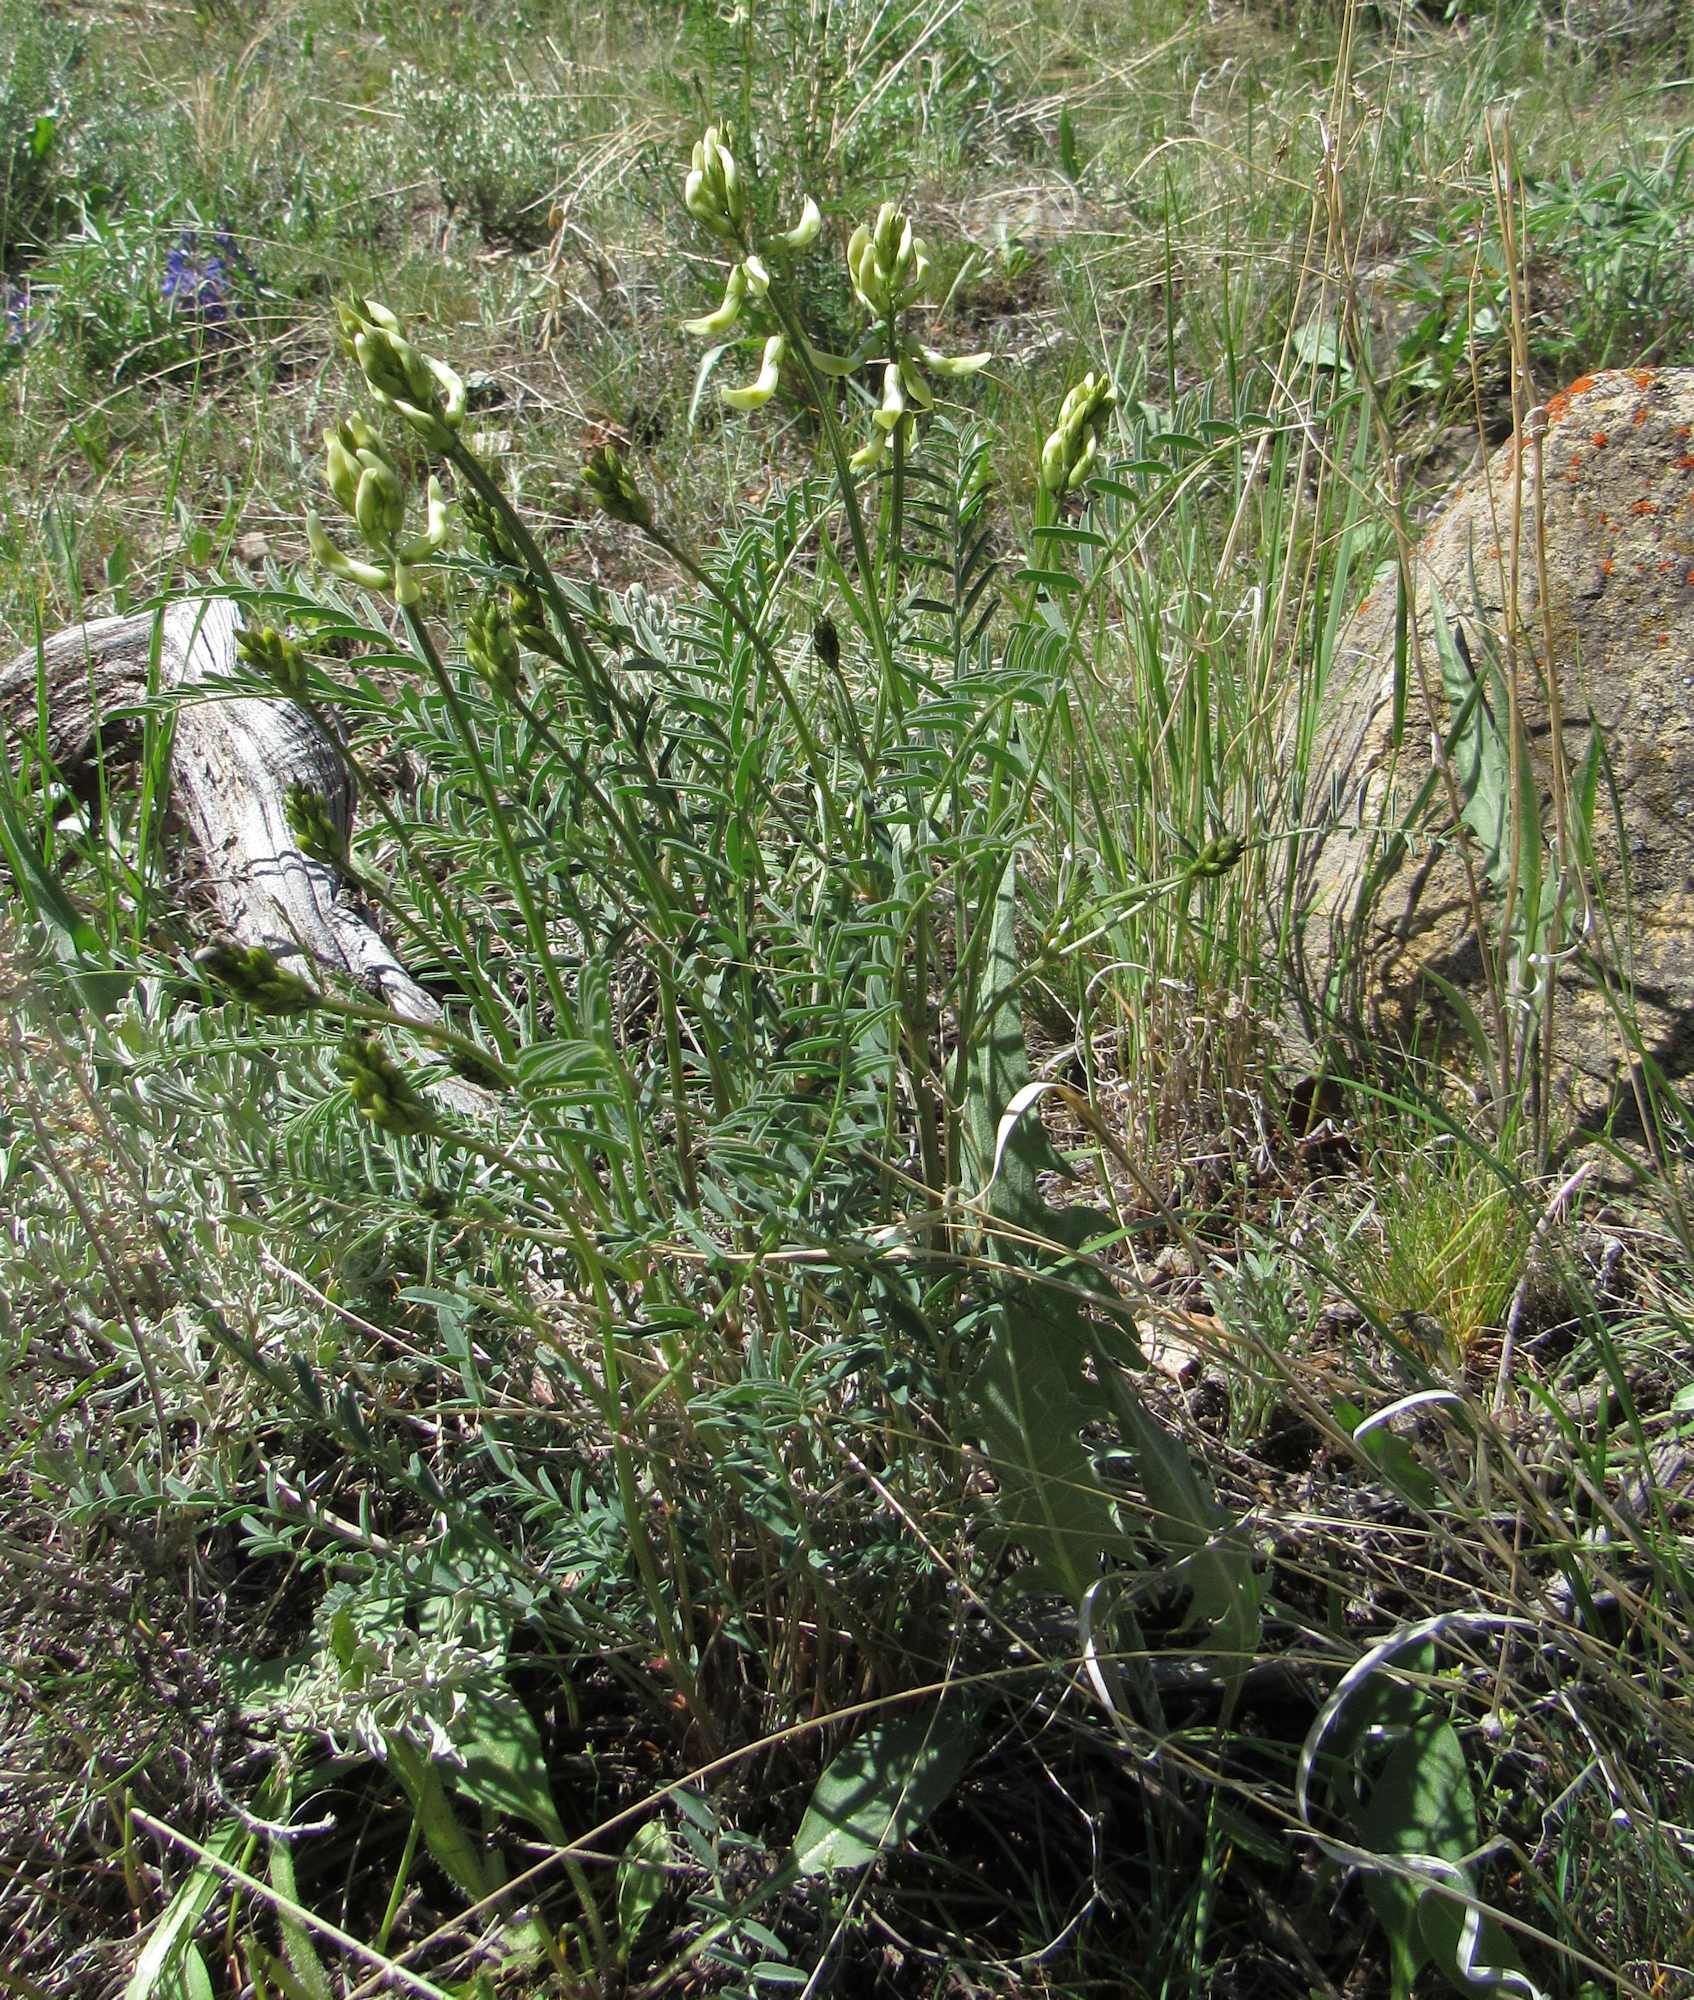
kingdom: Plantae
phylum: Tracheophyta
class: Magnoliopsida
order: Fabales
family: Fabaceae
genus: Astragalus
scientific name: Astragalus atropubescens
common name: Kelsey milk-vetch
